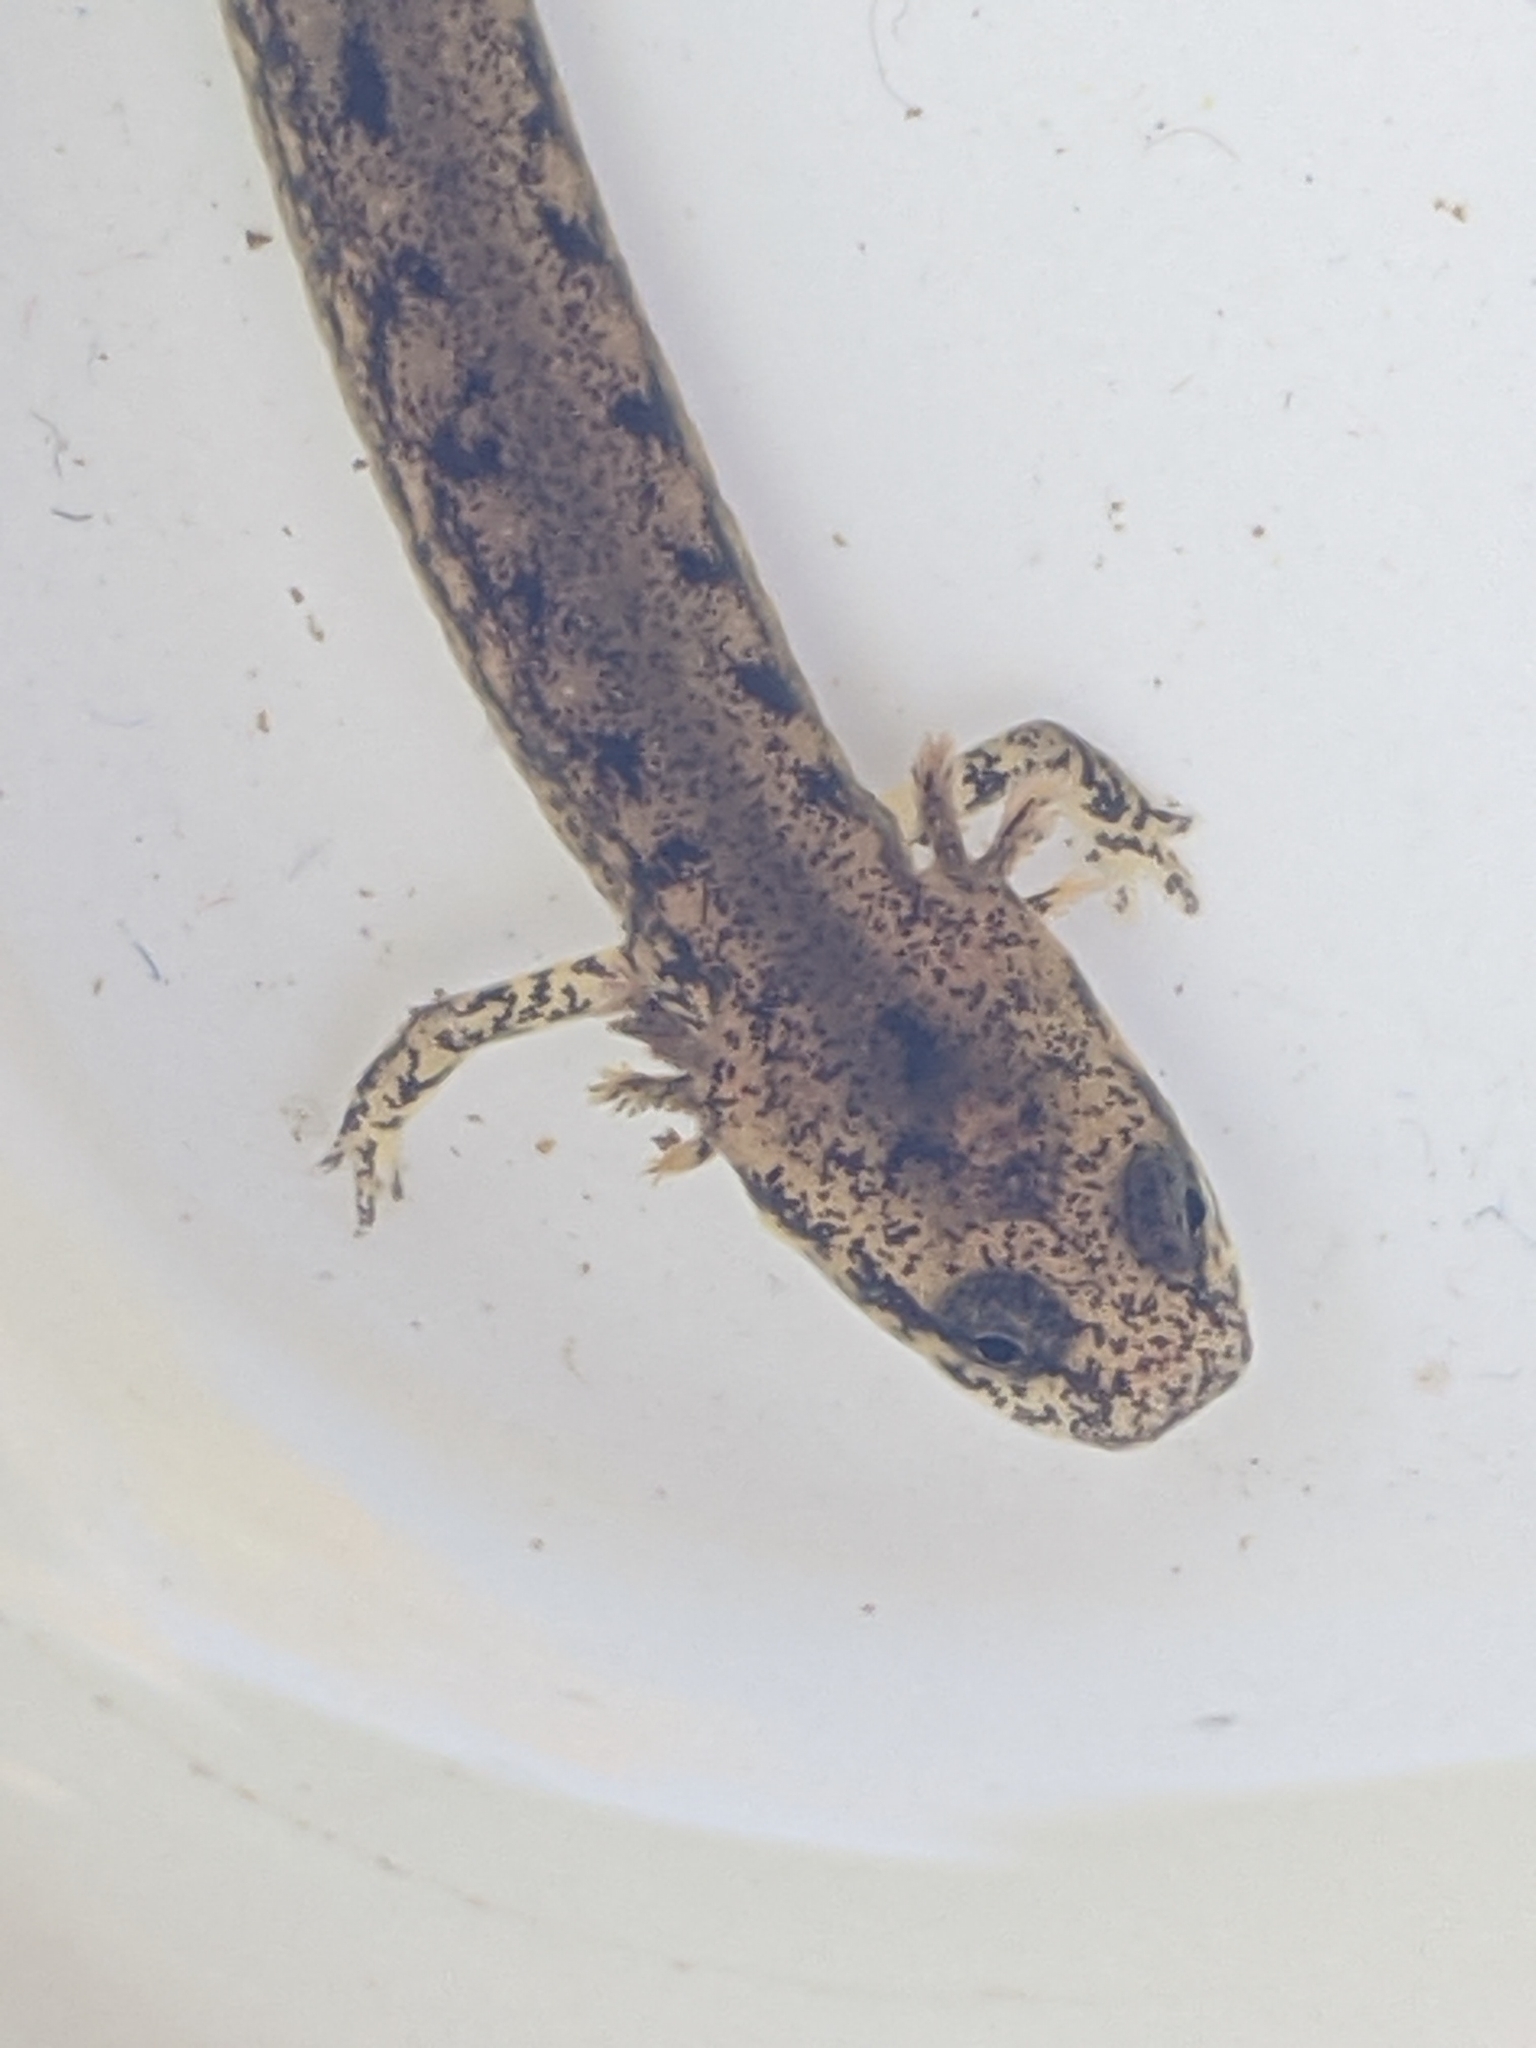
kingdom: Animalia
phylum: Chordata
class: Amphibia
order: Caudata
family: Plethodontidae
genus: Eurycea
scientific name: Eurycea bislineata
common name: Northern two-lined salamander
